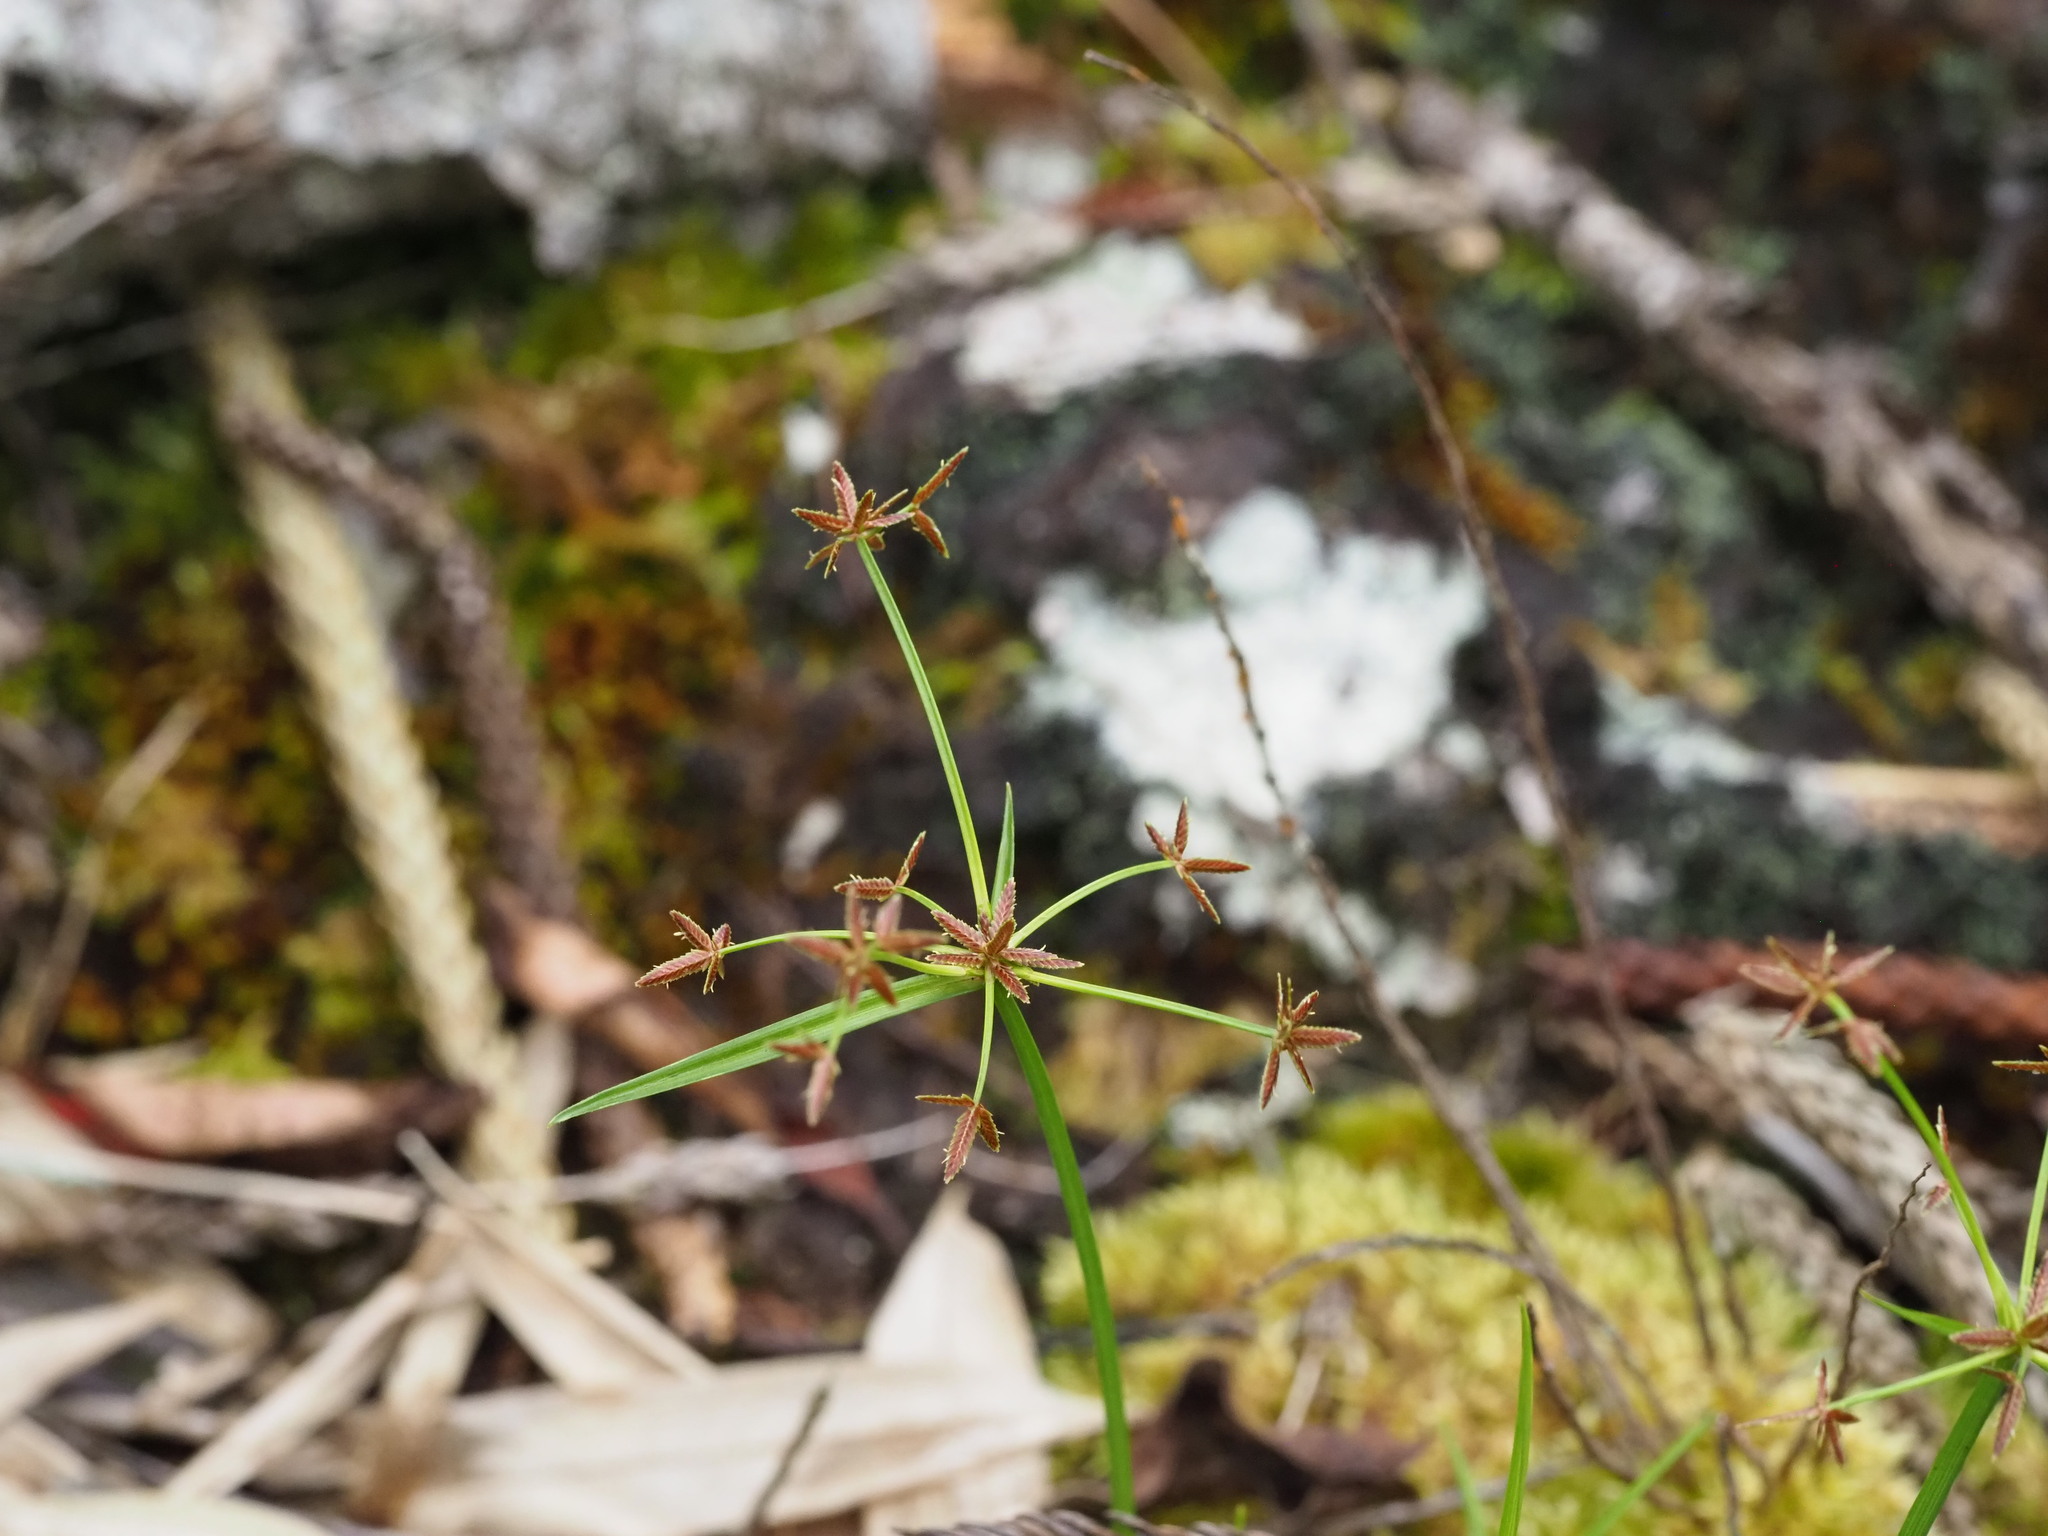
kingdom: Plantae
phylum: Tracheophyta
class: Liliopsida
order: Poales
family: Cyperaceae
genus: Cyperus
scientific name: Cyperus haspan
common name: Haspan flatsedge
